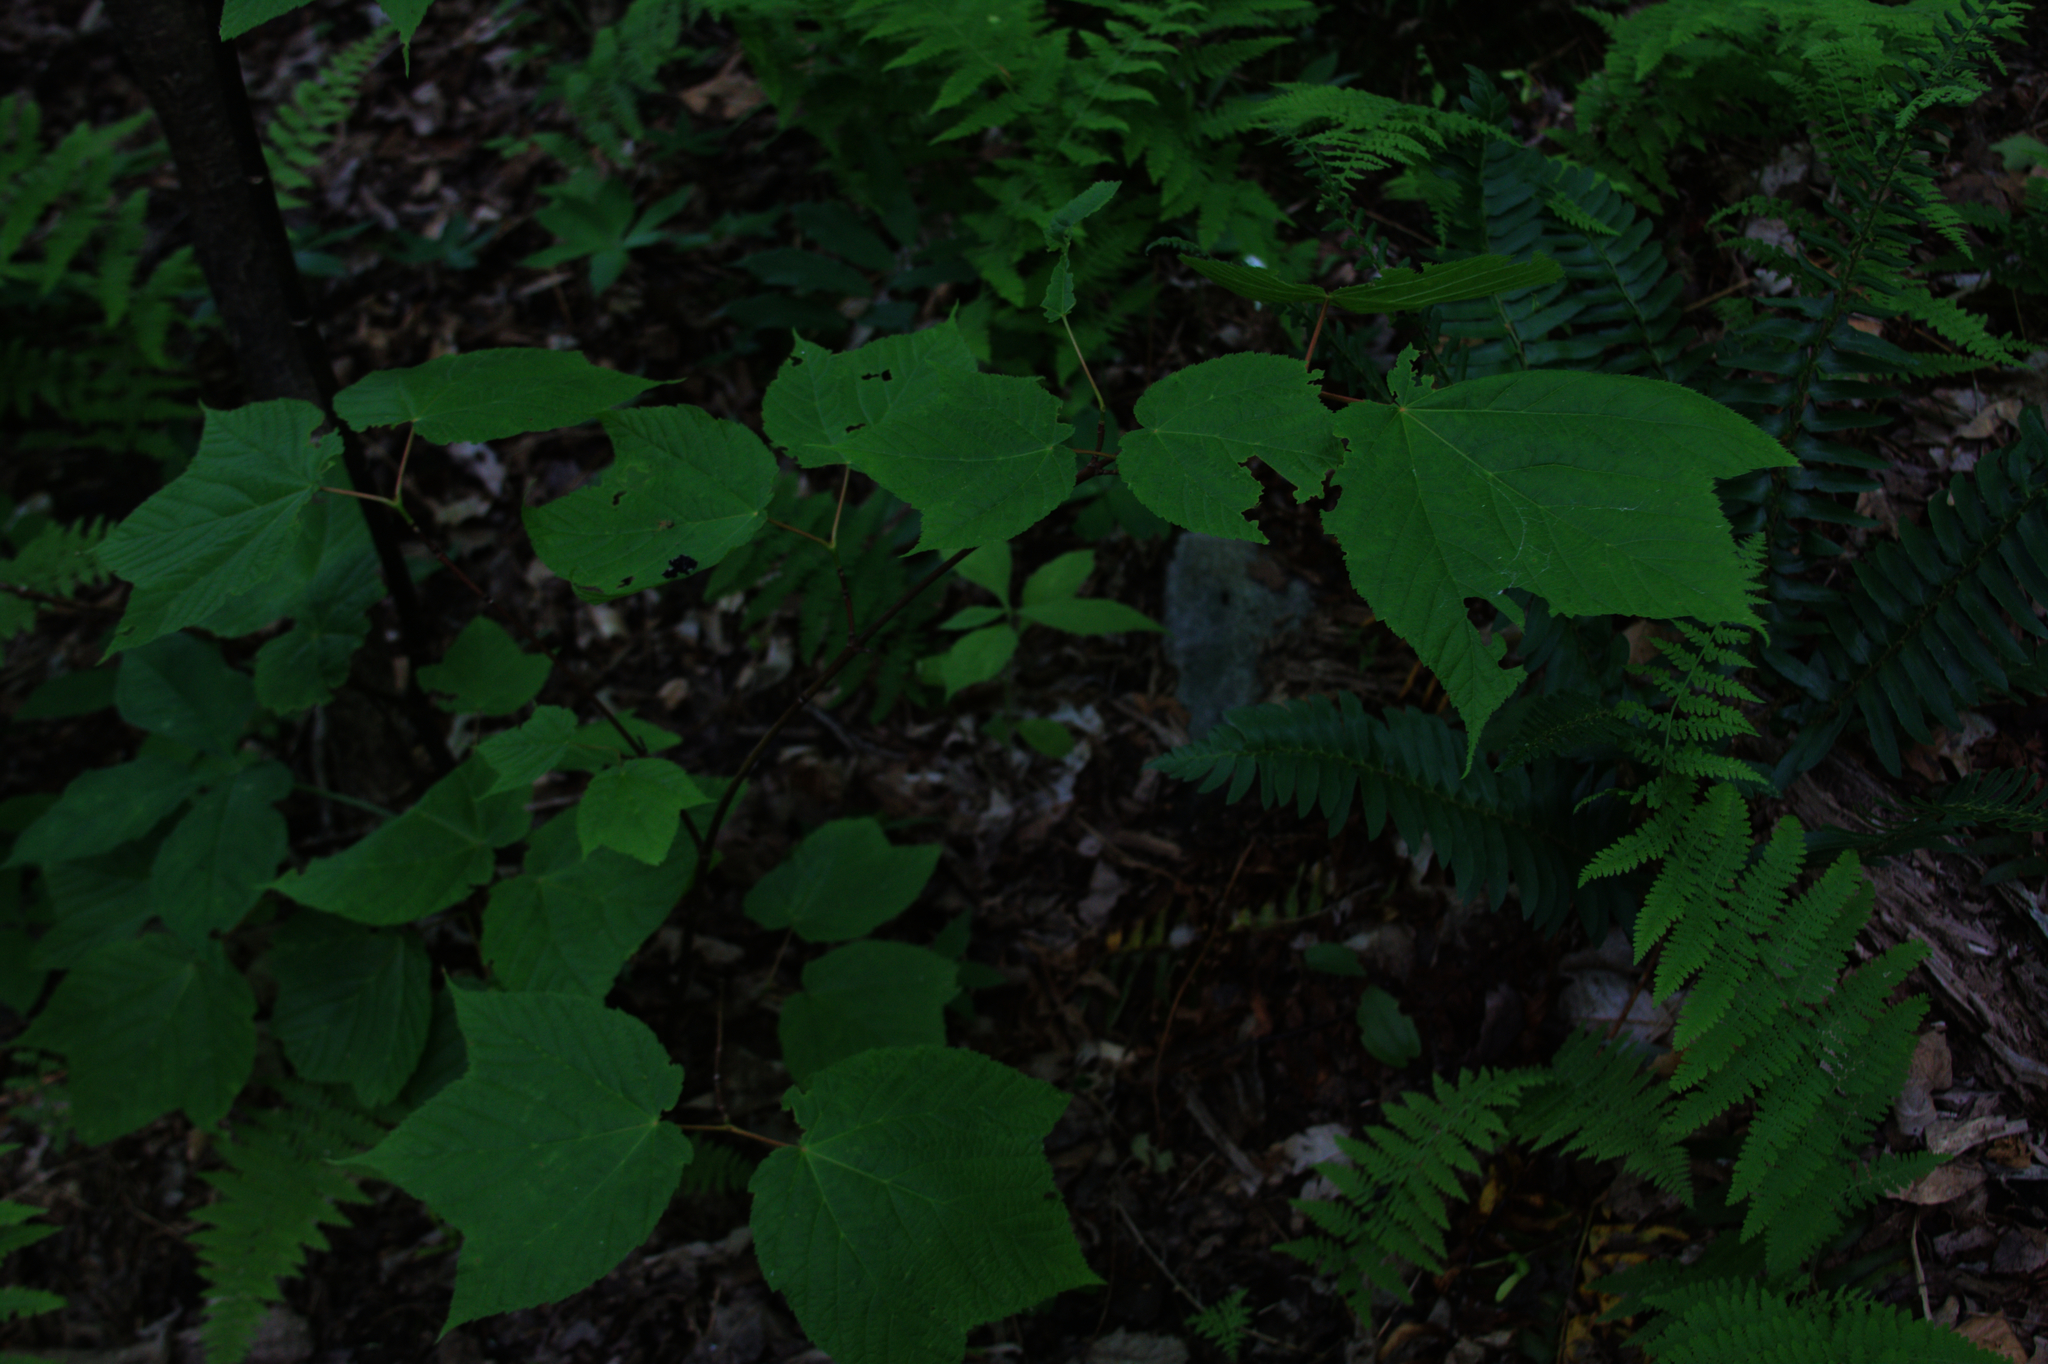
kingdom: Plantae
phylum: Tracheophyta
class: Magnoliopsida
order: Sapindales
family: Sapindaceae
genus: Acer
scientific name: Acer pensylvanicum
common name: Moosewood
